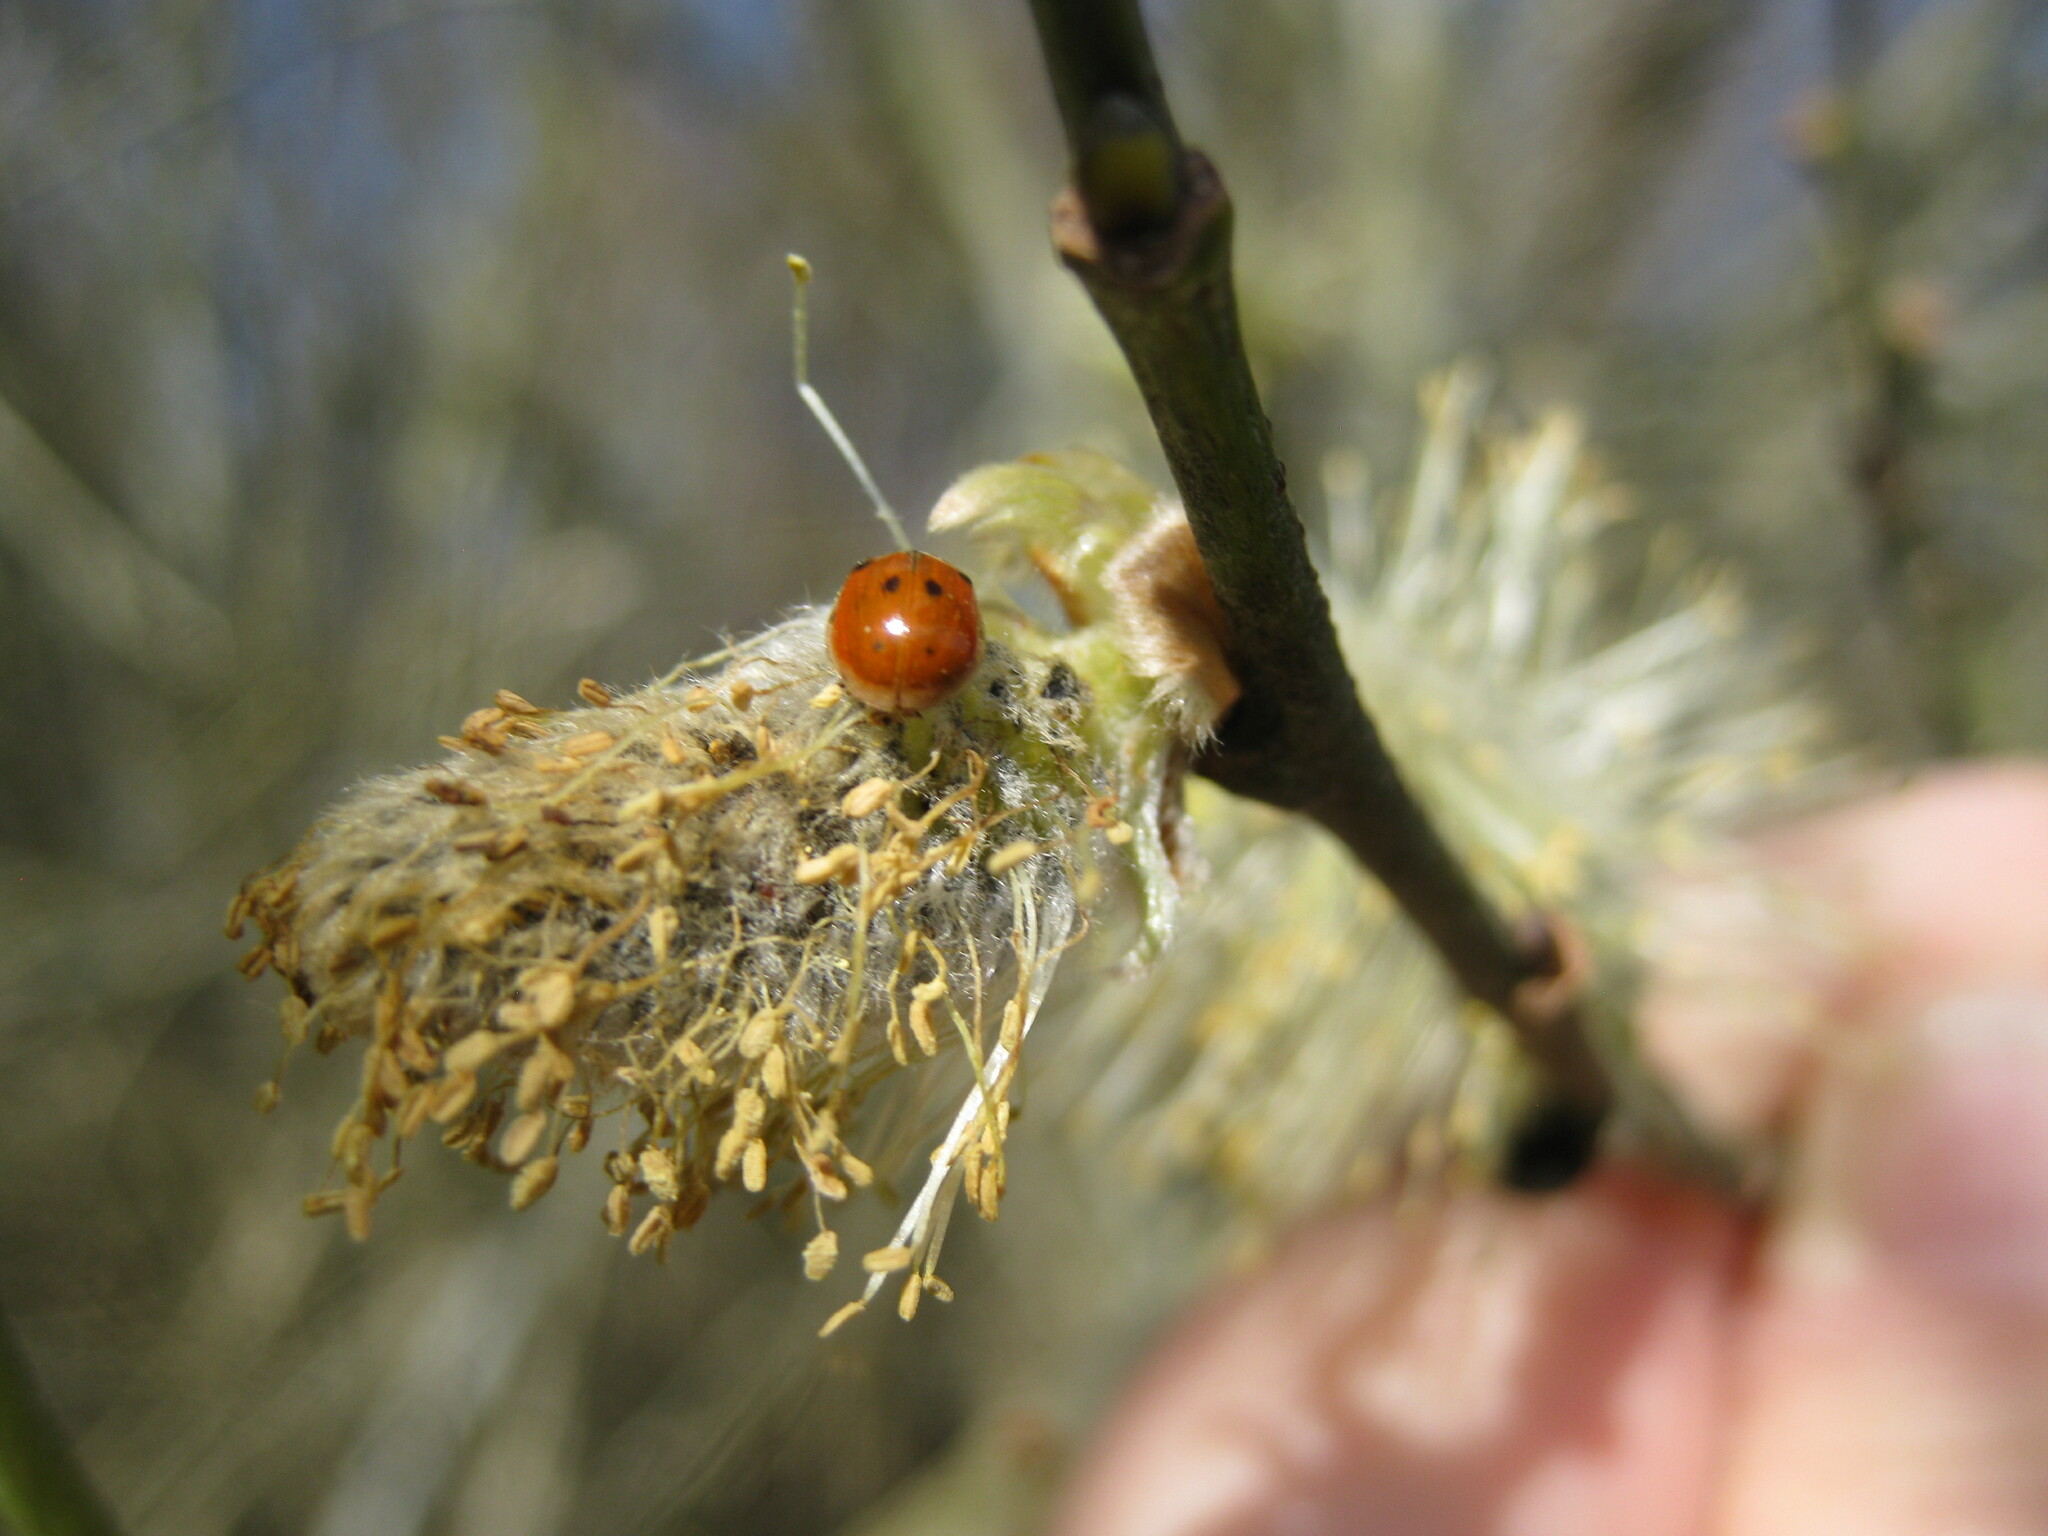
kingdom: Animalia
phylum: Arthropoda
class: Insecta
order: Coleoptera
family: Coccinellidae
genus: Adalia
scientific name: Adalia decempunctata
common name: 10-spot ladybird
